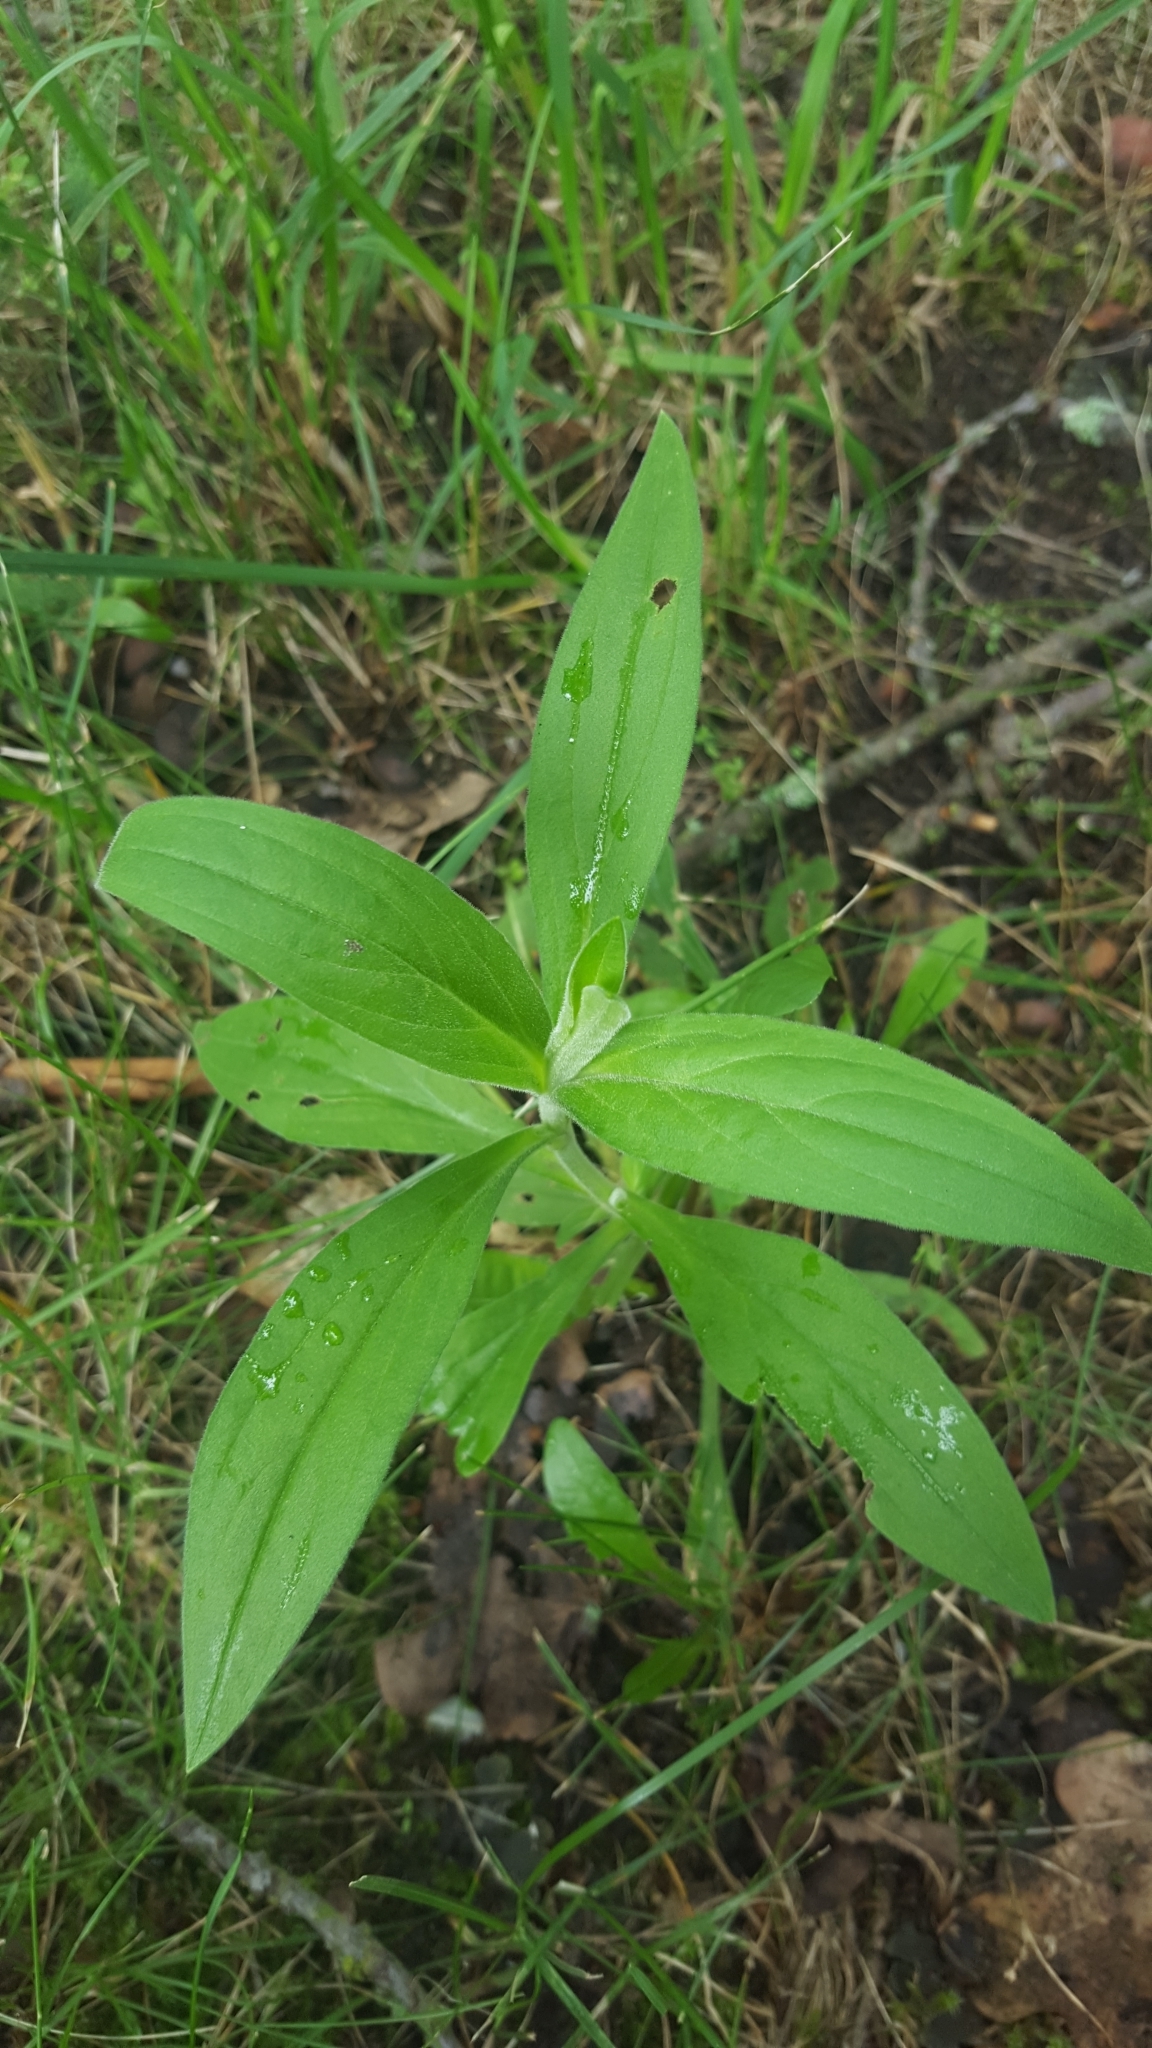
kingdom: Plantae
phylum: Tracheophyta
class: Magnoliopsida
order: Caryophyllales
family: Caryophyllaceae
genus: Silene
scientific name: Silene latifolia
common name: White campion
